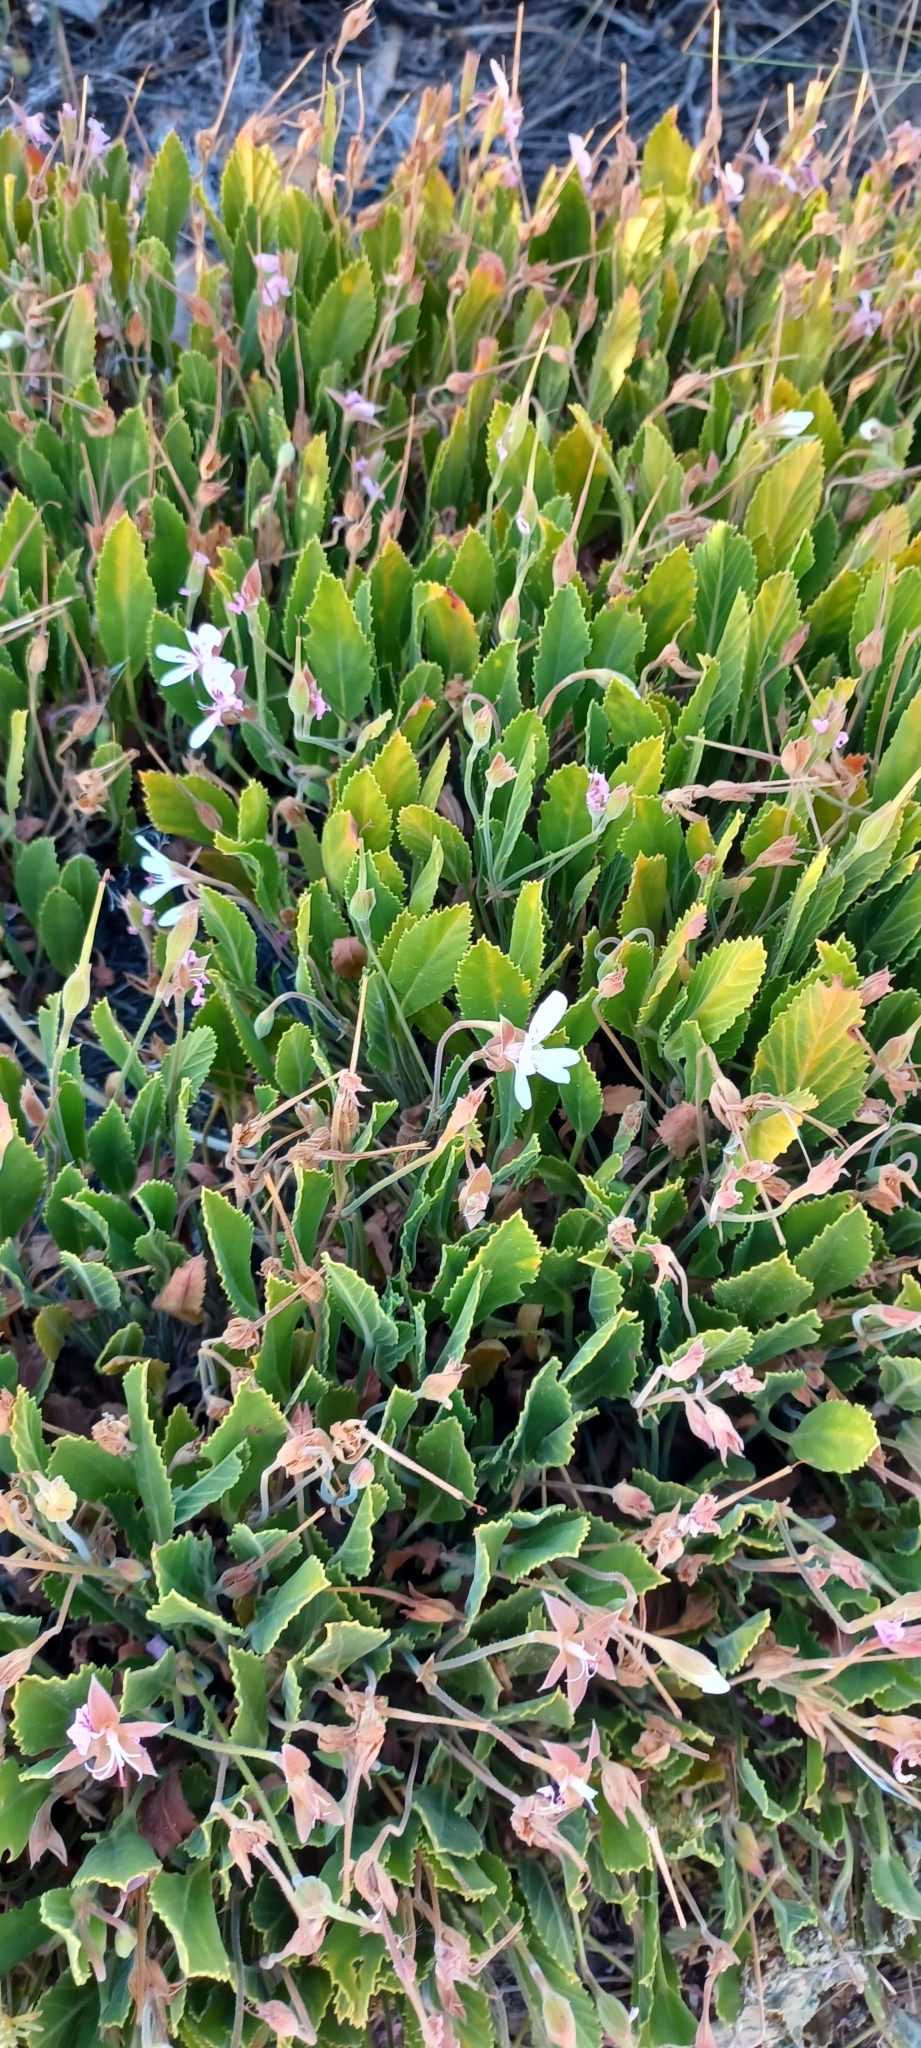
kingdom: Plantae
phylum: Tracheophyta
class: Magnoliopsida
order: Geraniales
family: Geraniaceae
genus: Pelargonium
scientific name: Pelargonium ovale
